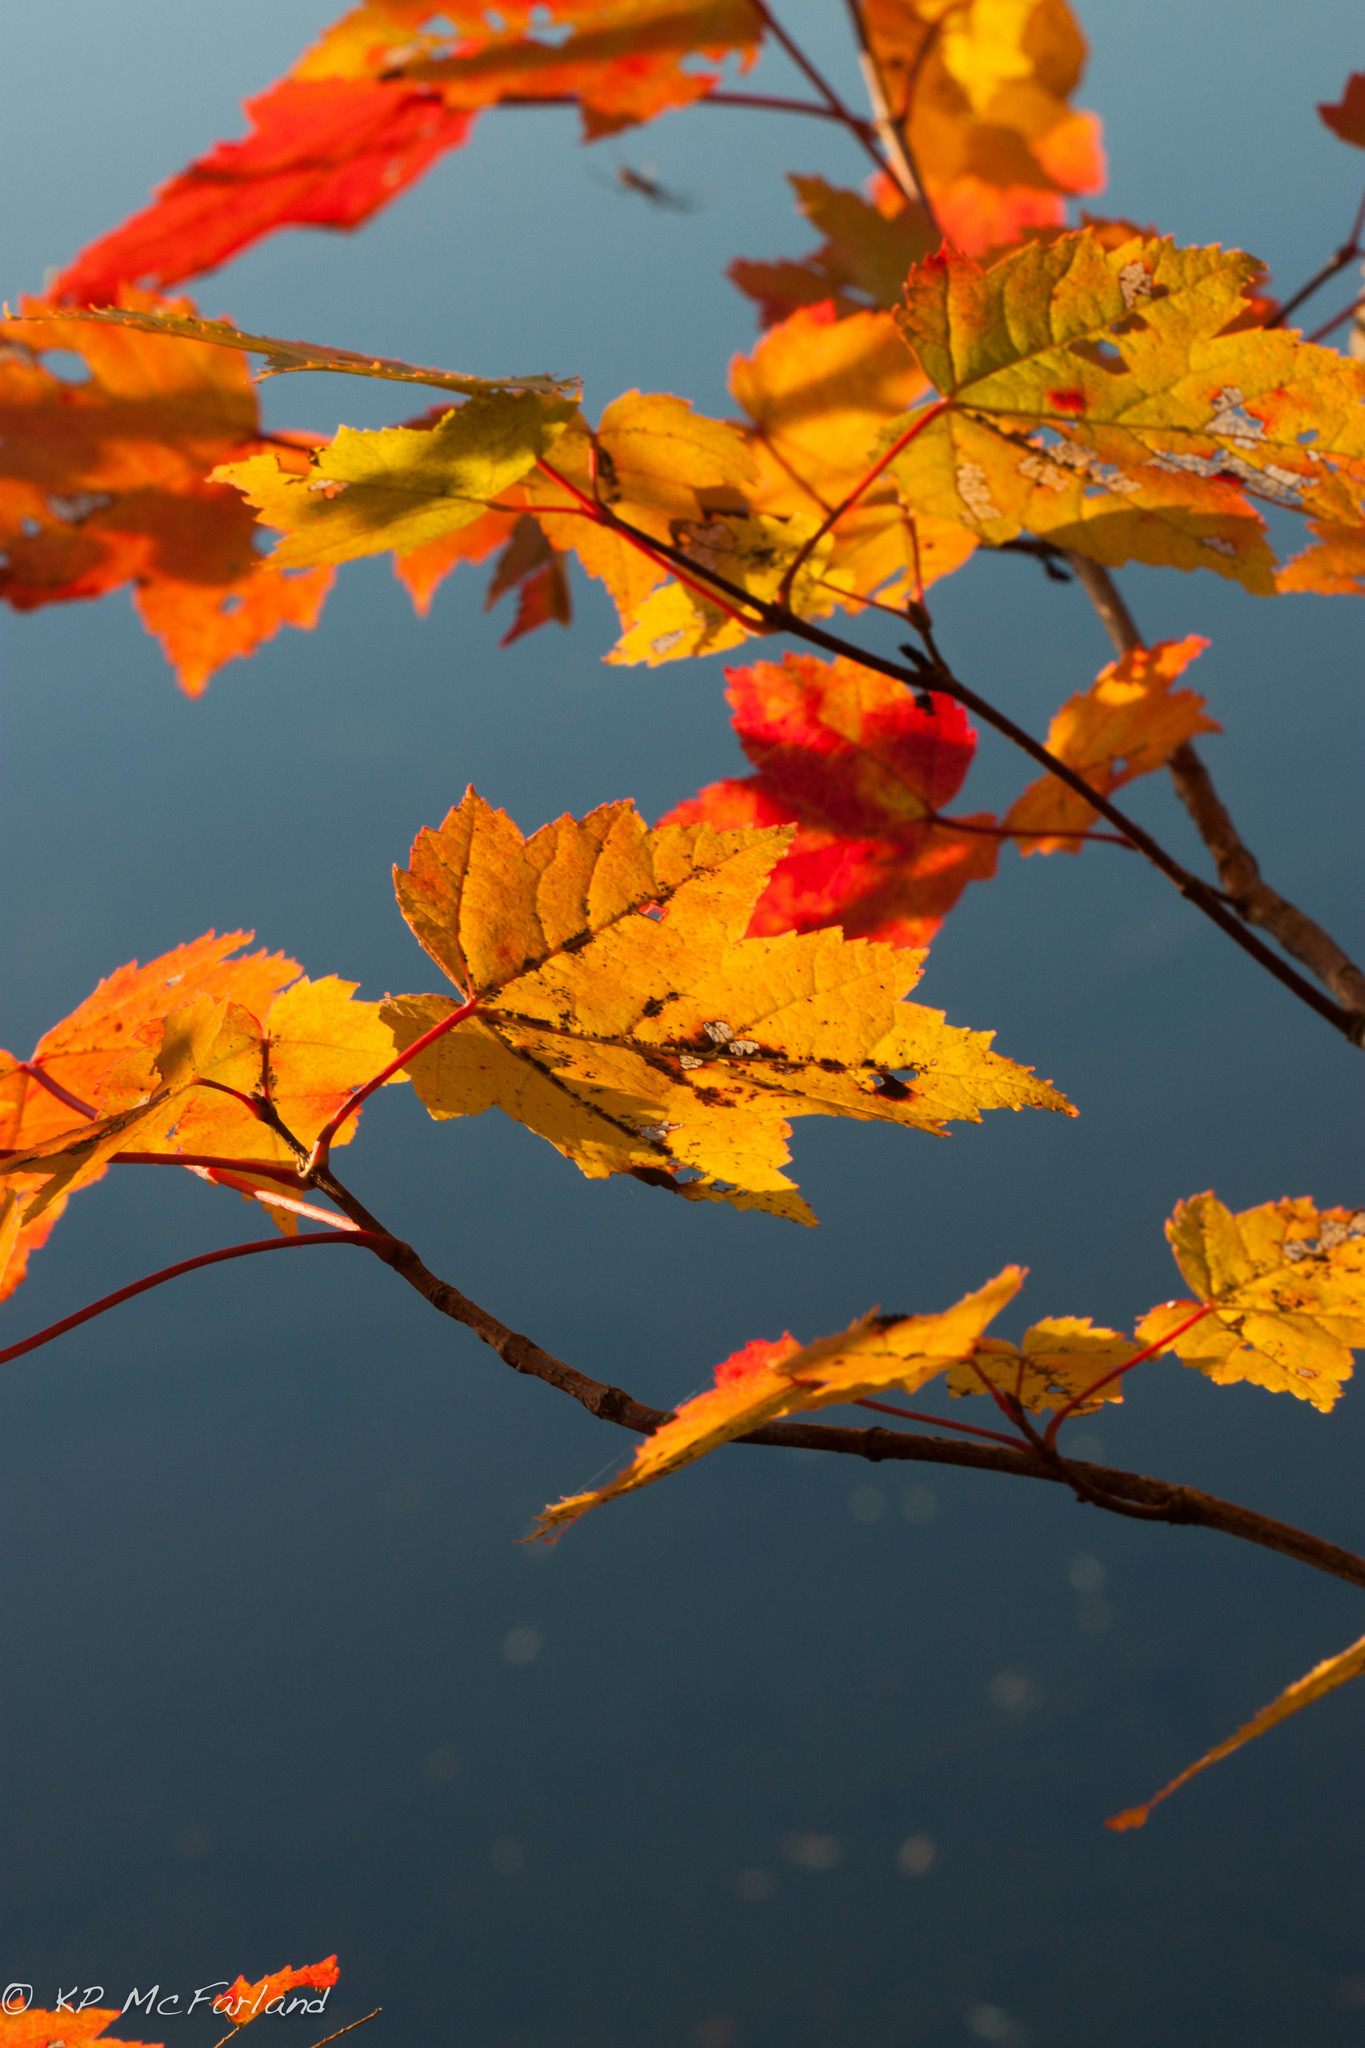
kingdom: Plantae
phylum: Tracheophyta
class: Magnoliopsida
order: Sapindales
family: Sapindaceae
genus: Acer
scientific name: Acer spicatum
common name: Mountain maple
